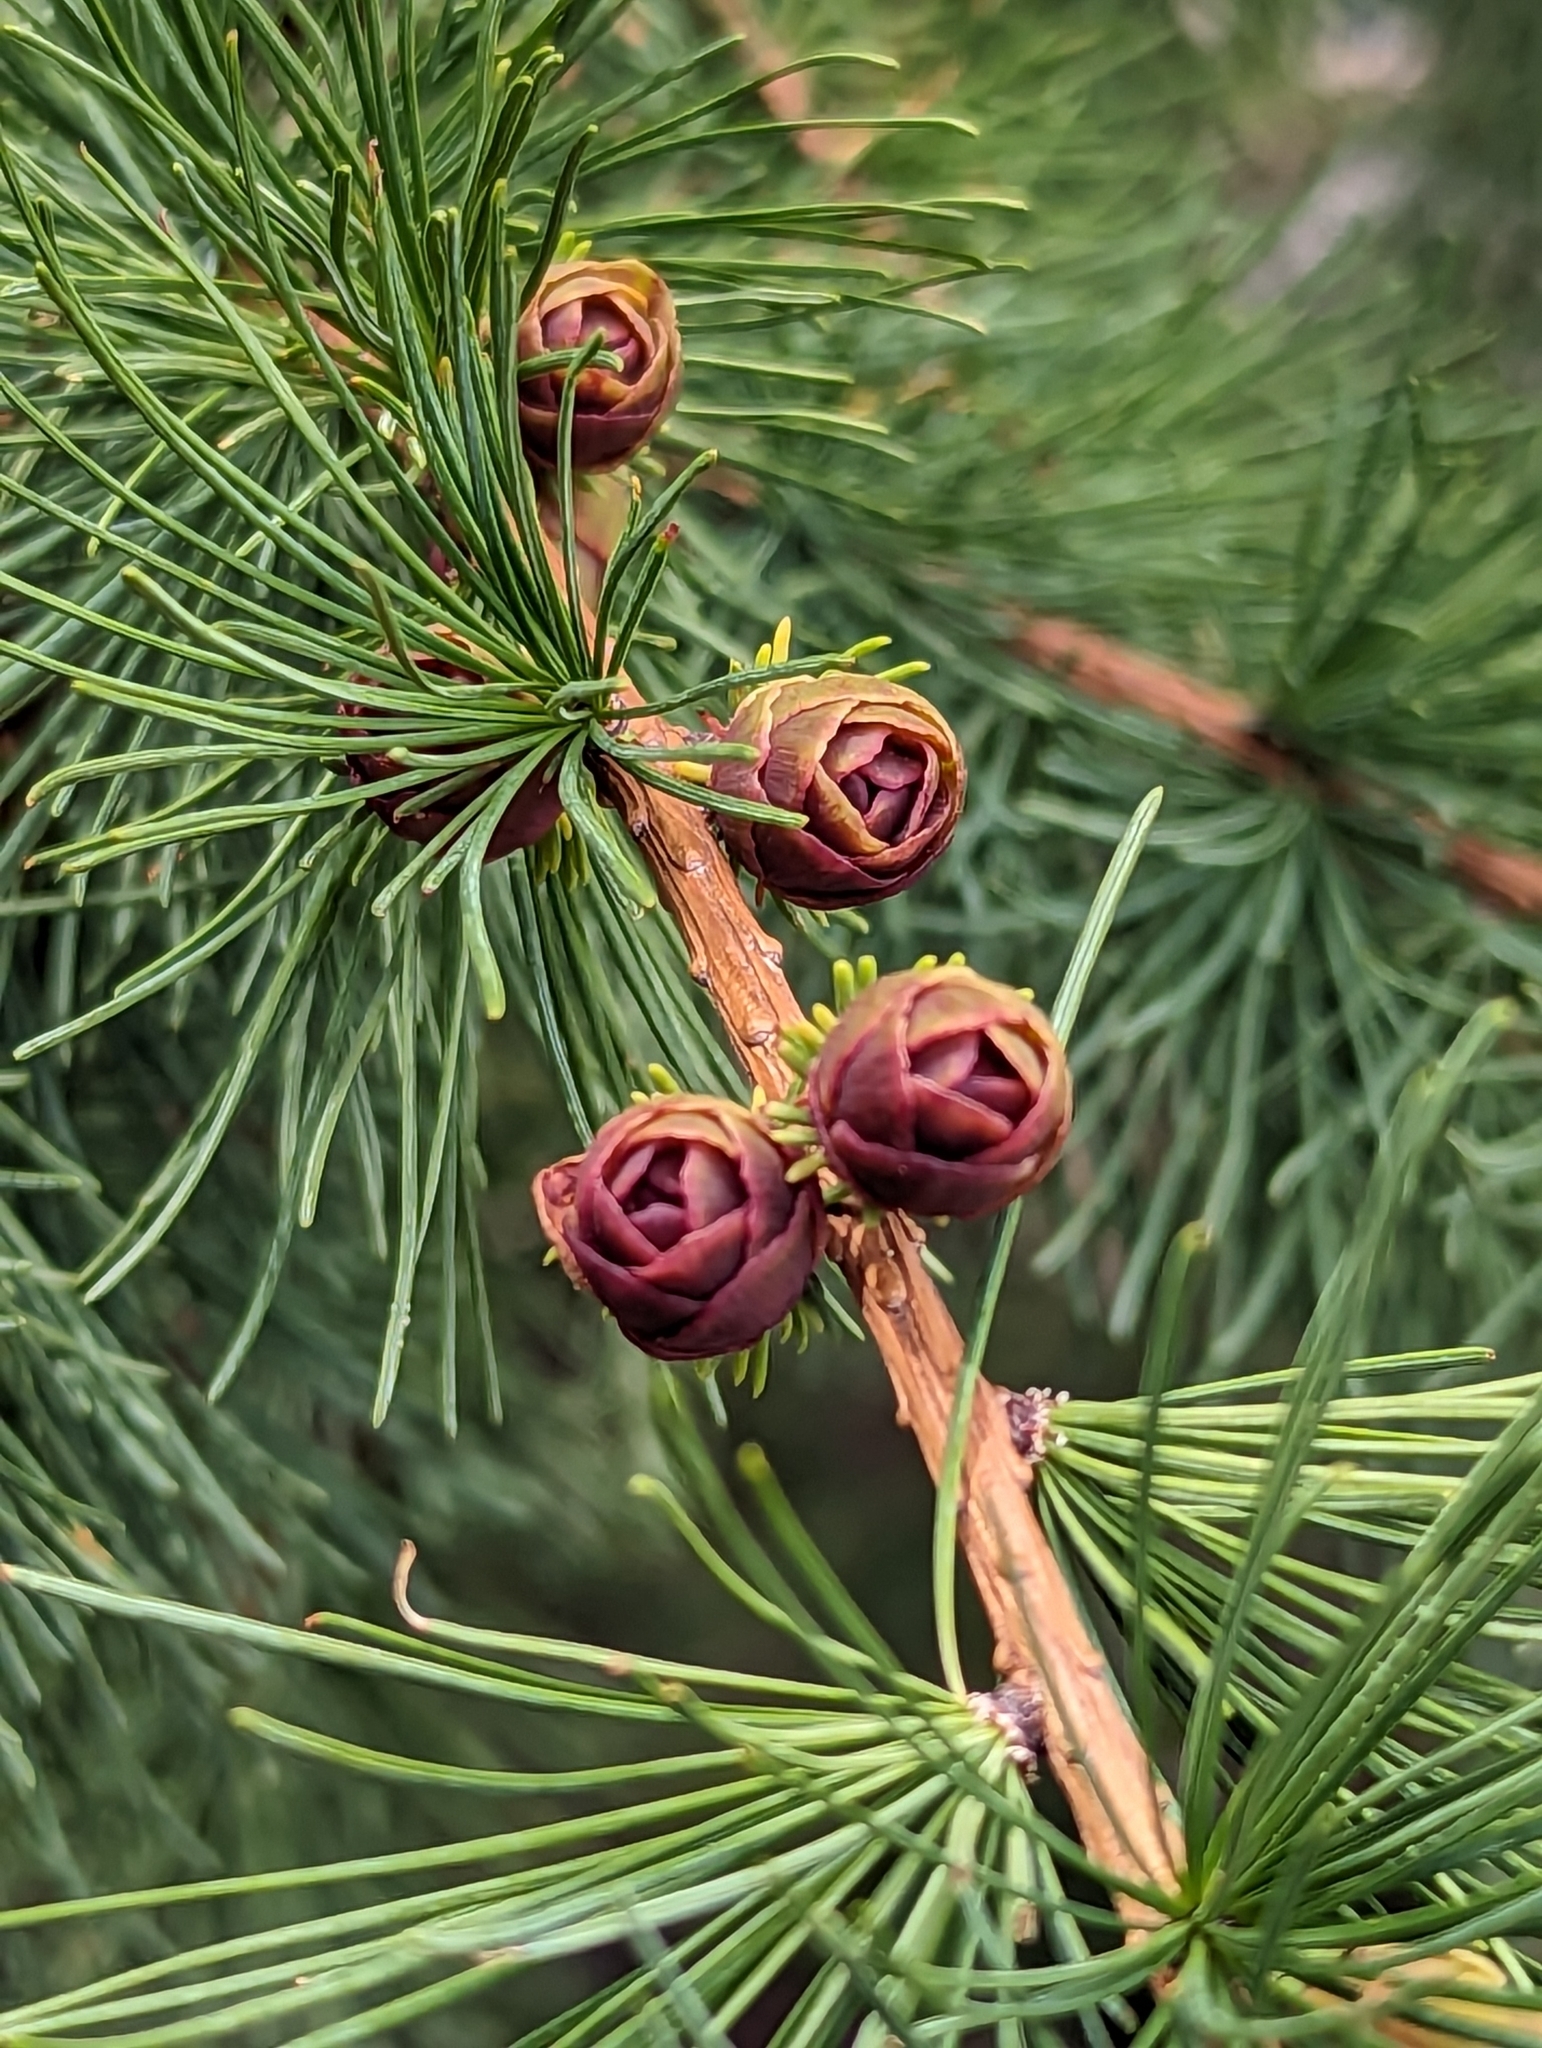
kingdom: Plantae
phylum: Tracheophyta
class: Pinopsida
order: Pinales
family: Pinaceae
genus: Larix
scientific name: Larix laricina
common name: American larch
